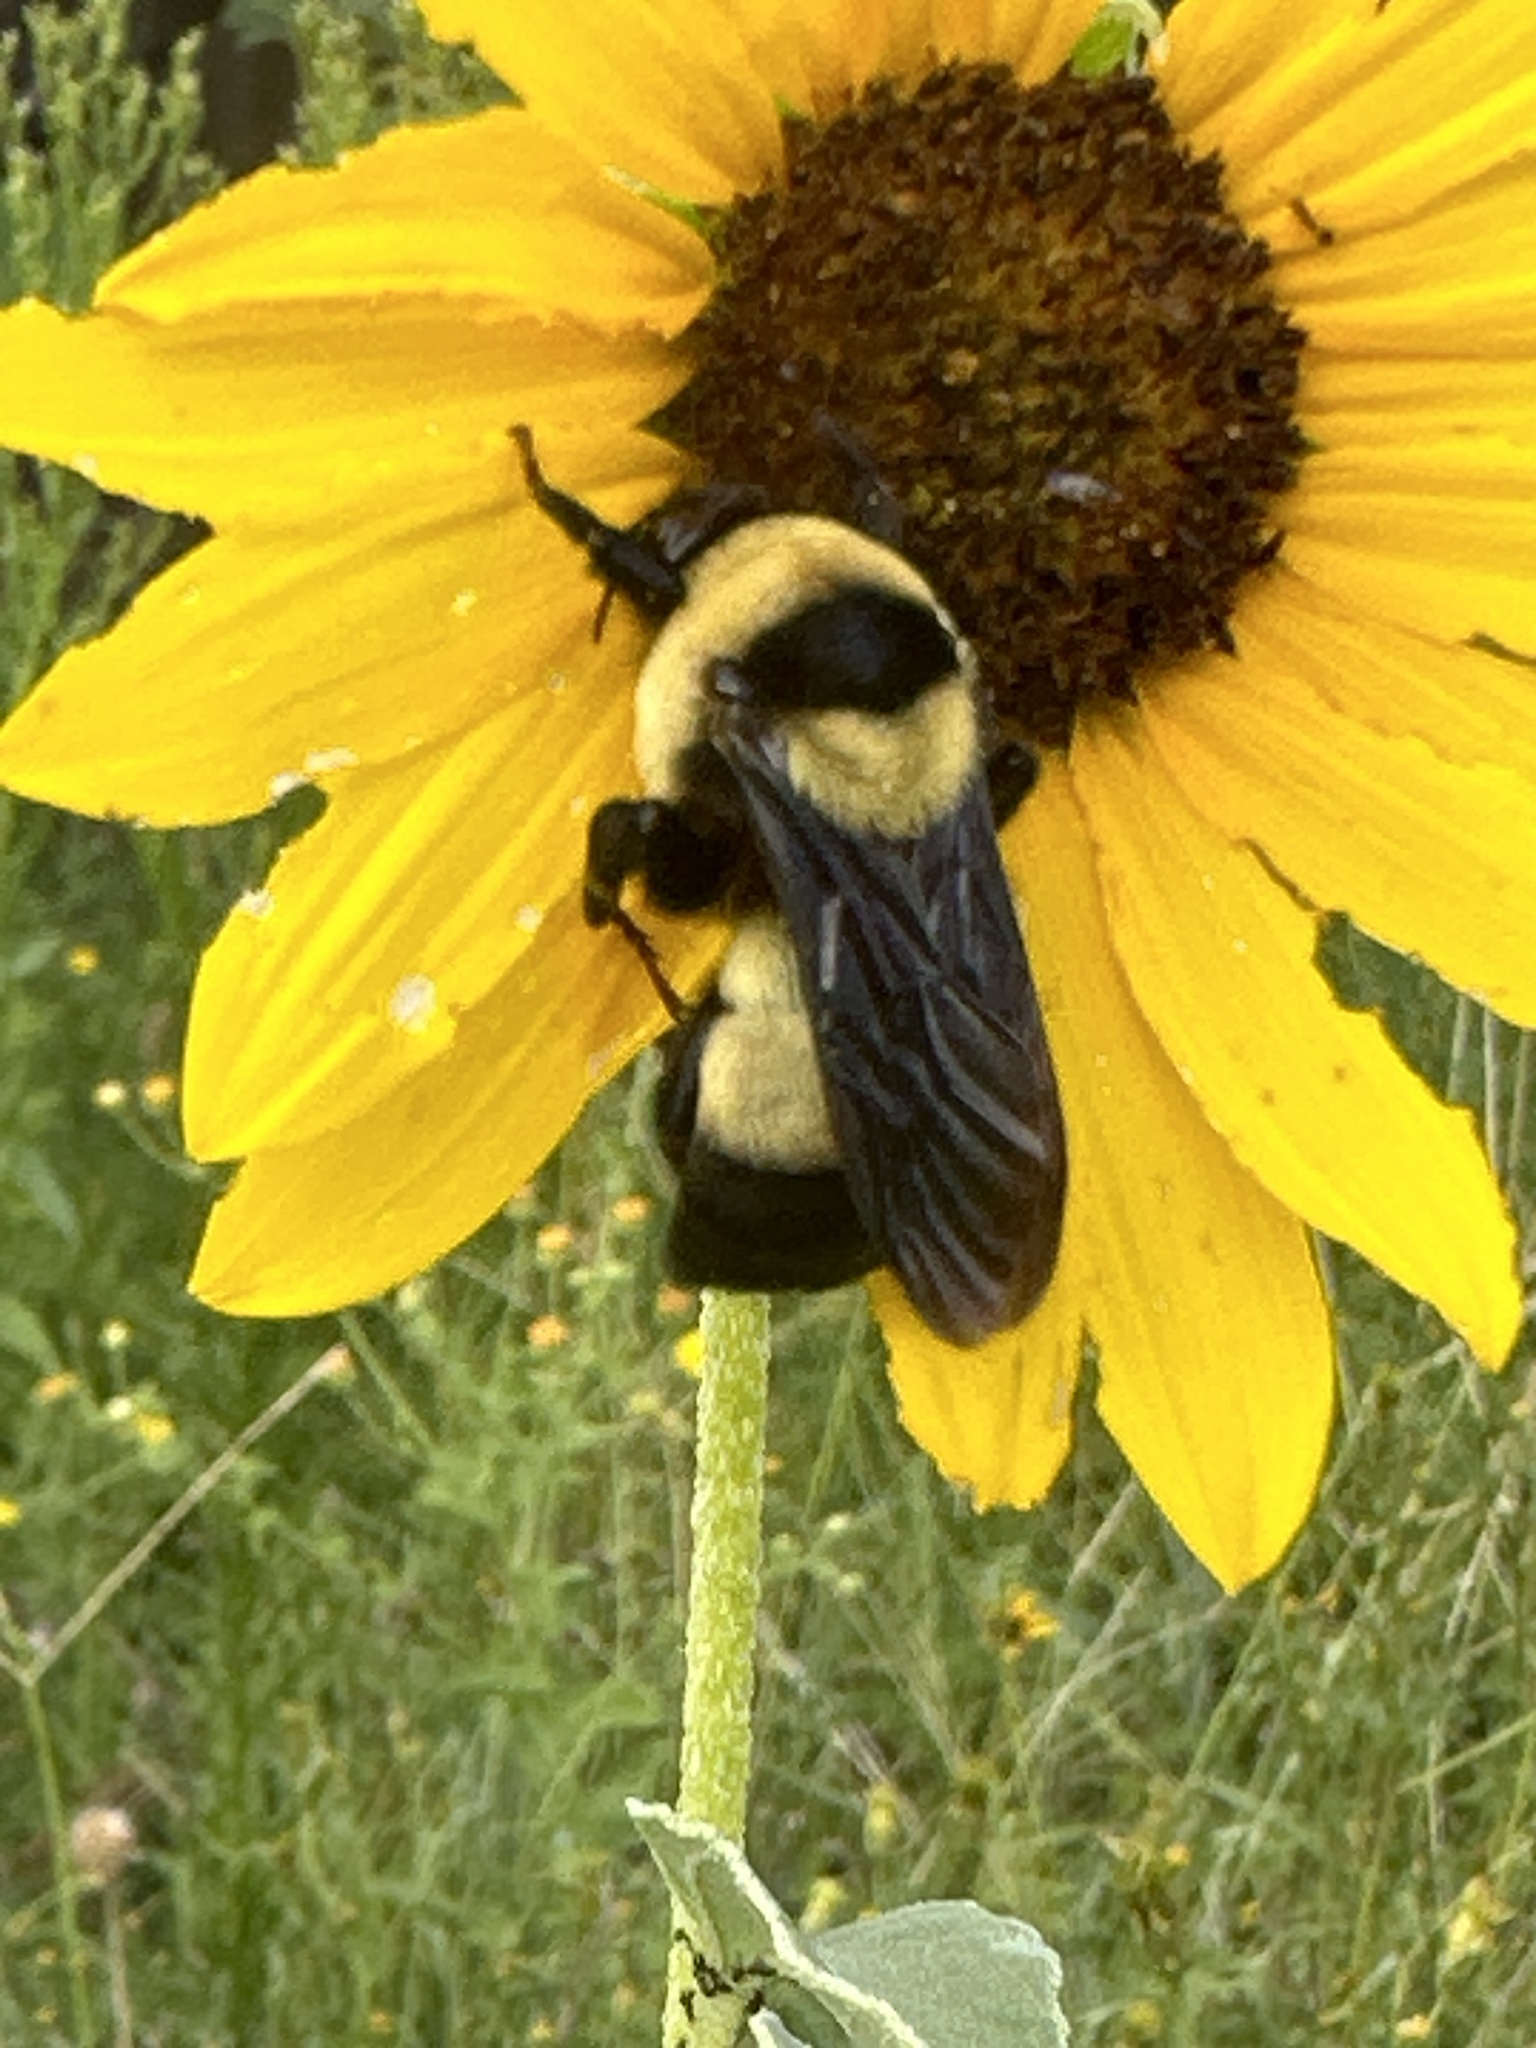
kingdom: Animalia
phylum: Arthropoda
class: Insecta
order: Hymenoptera
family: Apidae
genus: Bombus
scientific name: Bombus fraternus
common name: Southern plains bumble bee
